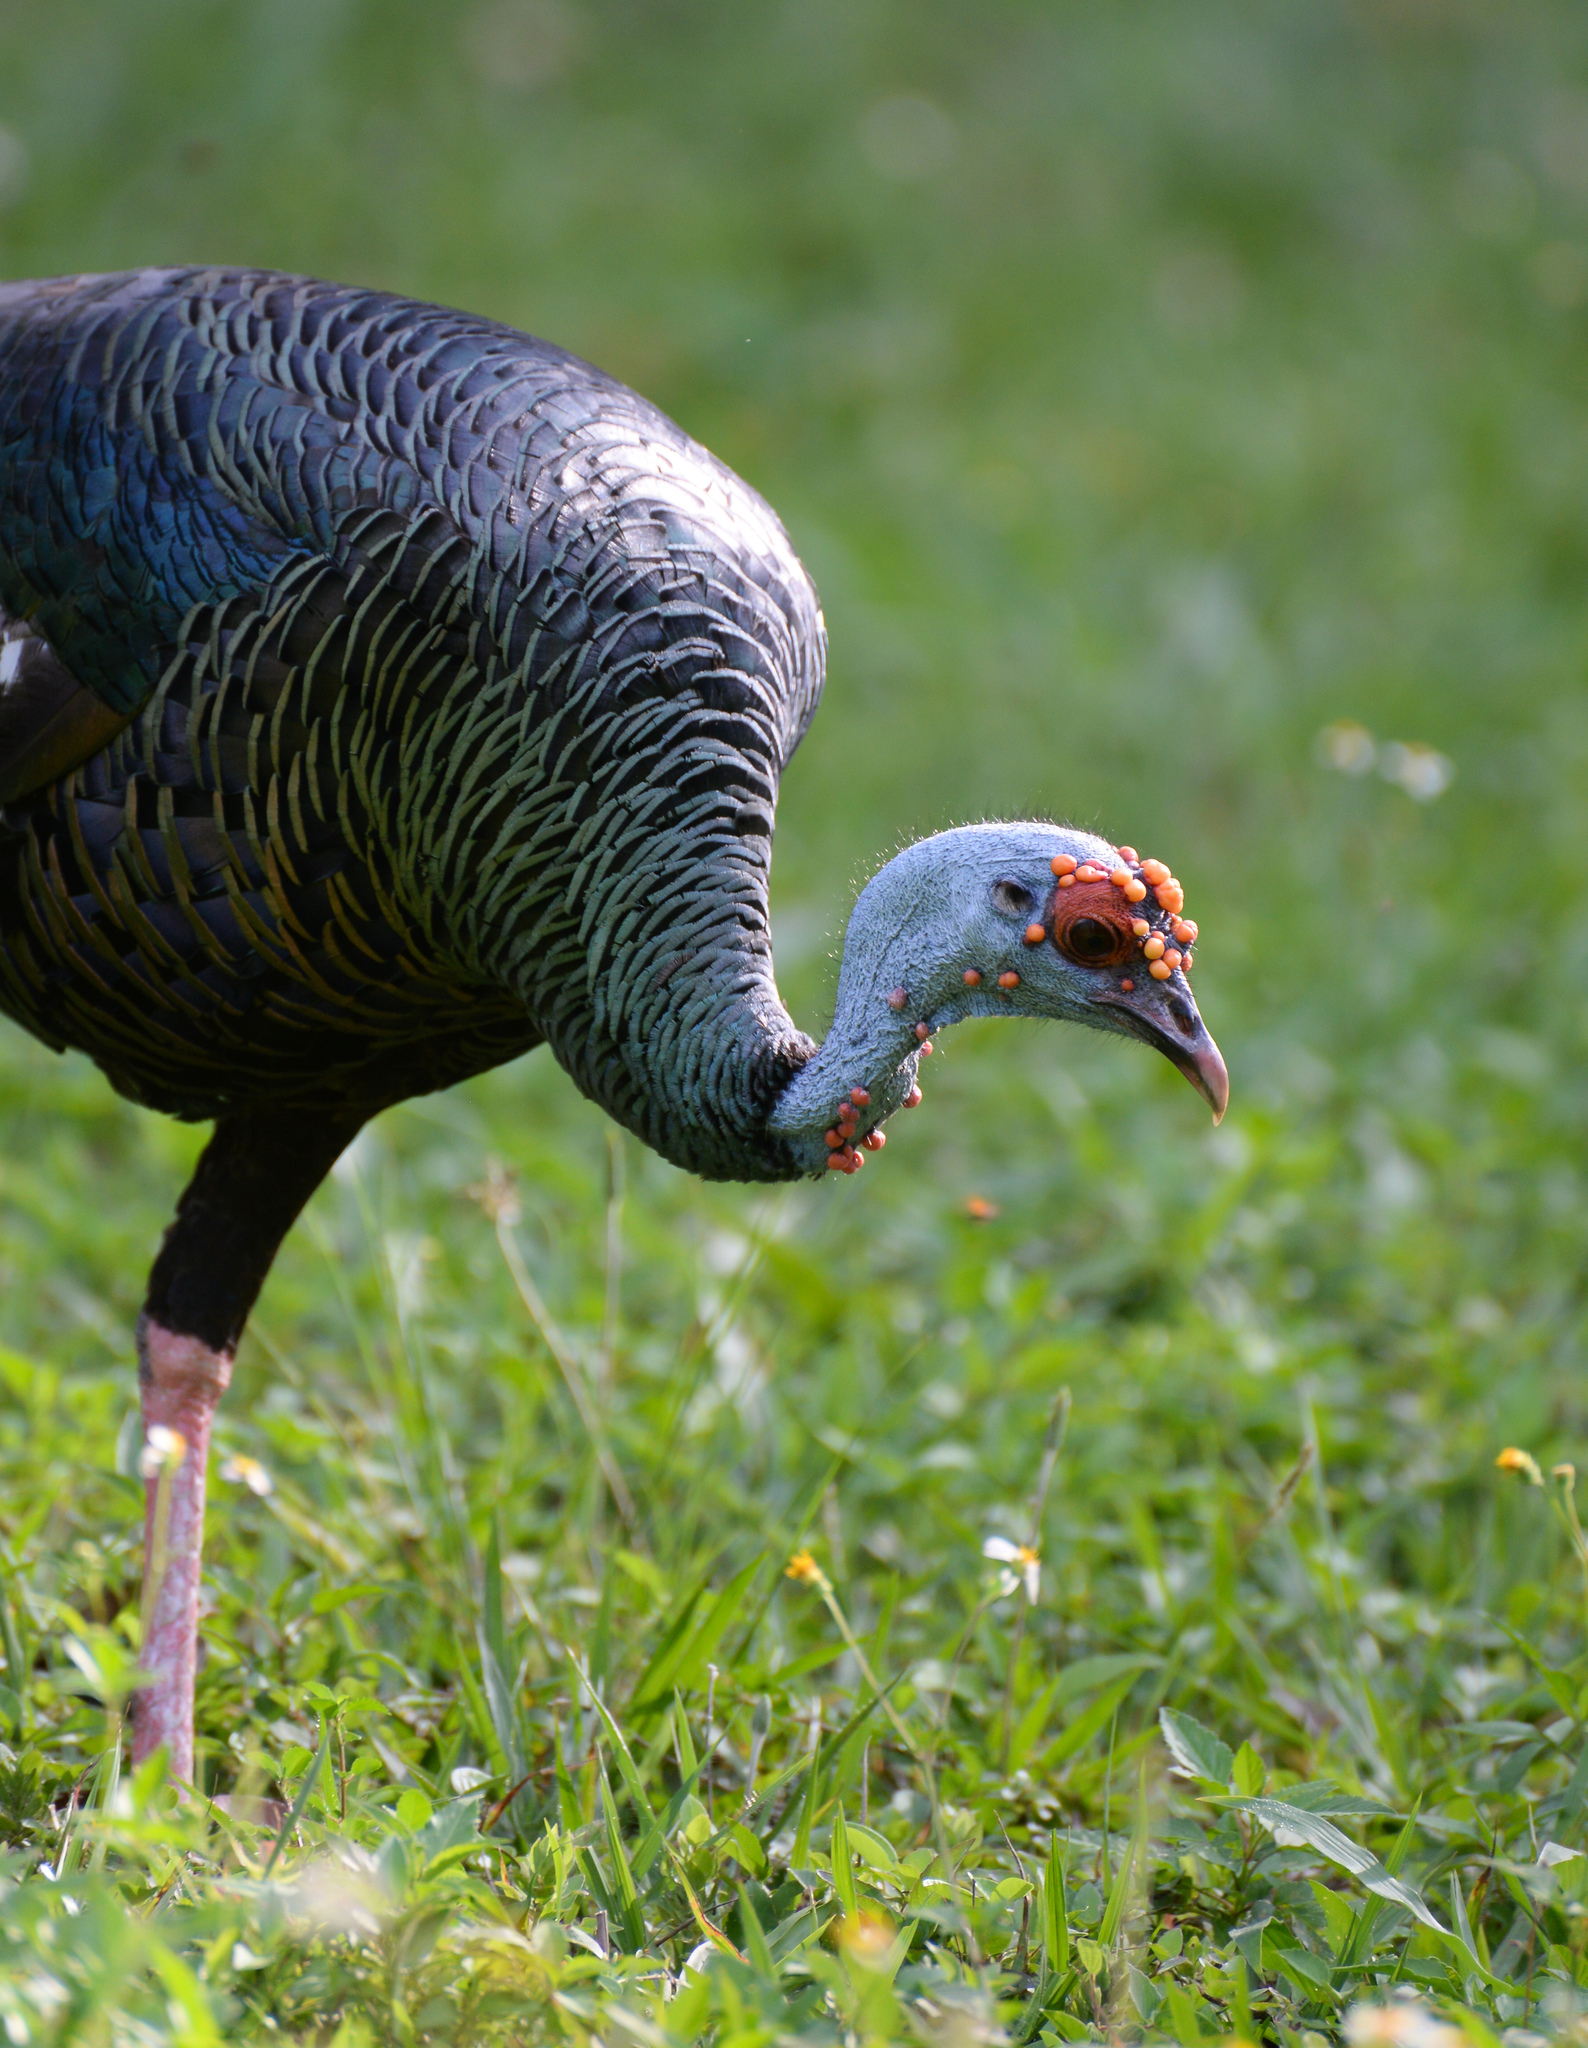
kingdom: Animalia
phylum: Chordata
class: Aves
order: Galliformes
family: Phasianidae
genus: Meleagris
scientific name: Meleagris ocellata
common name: Ocellated turkey
